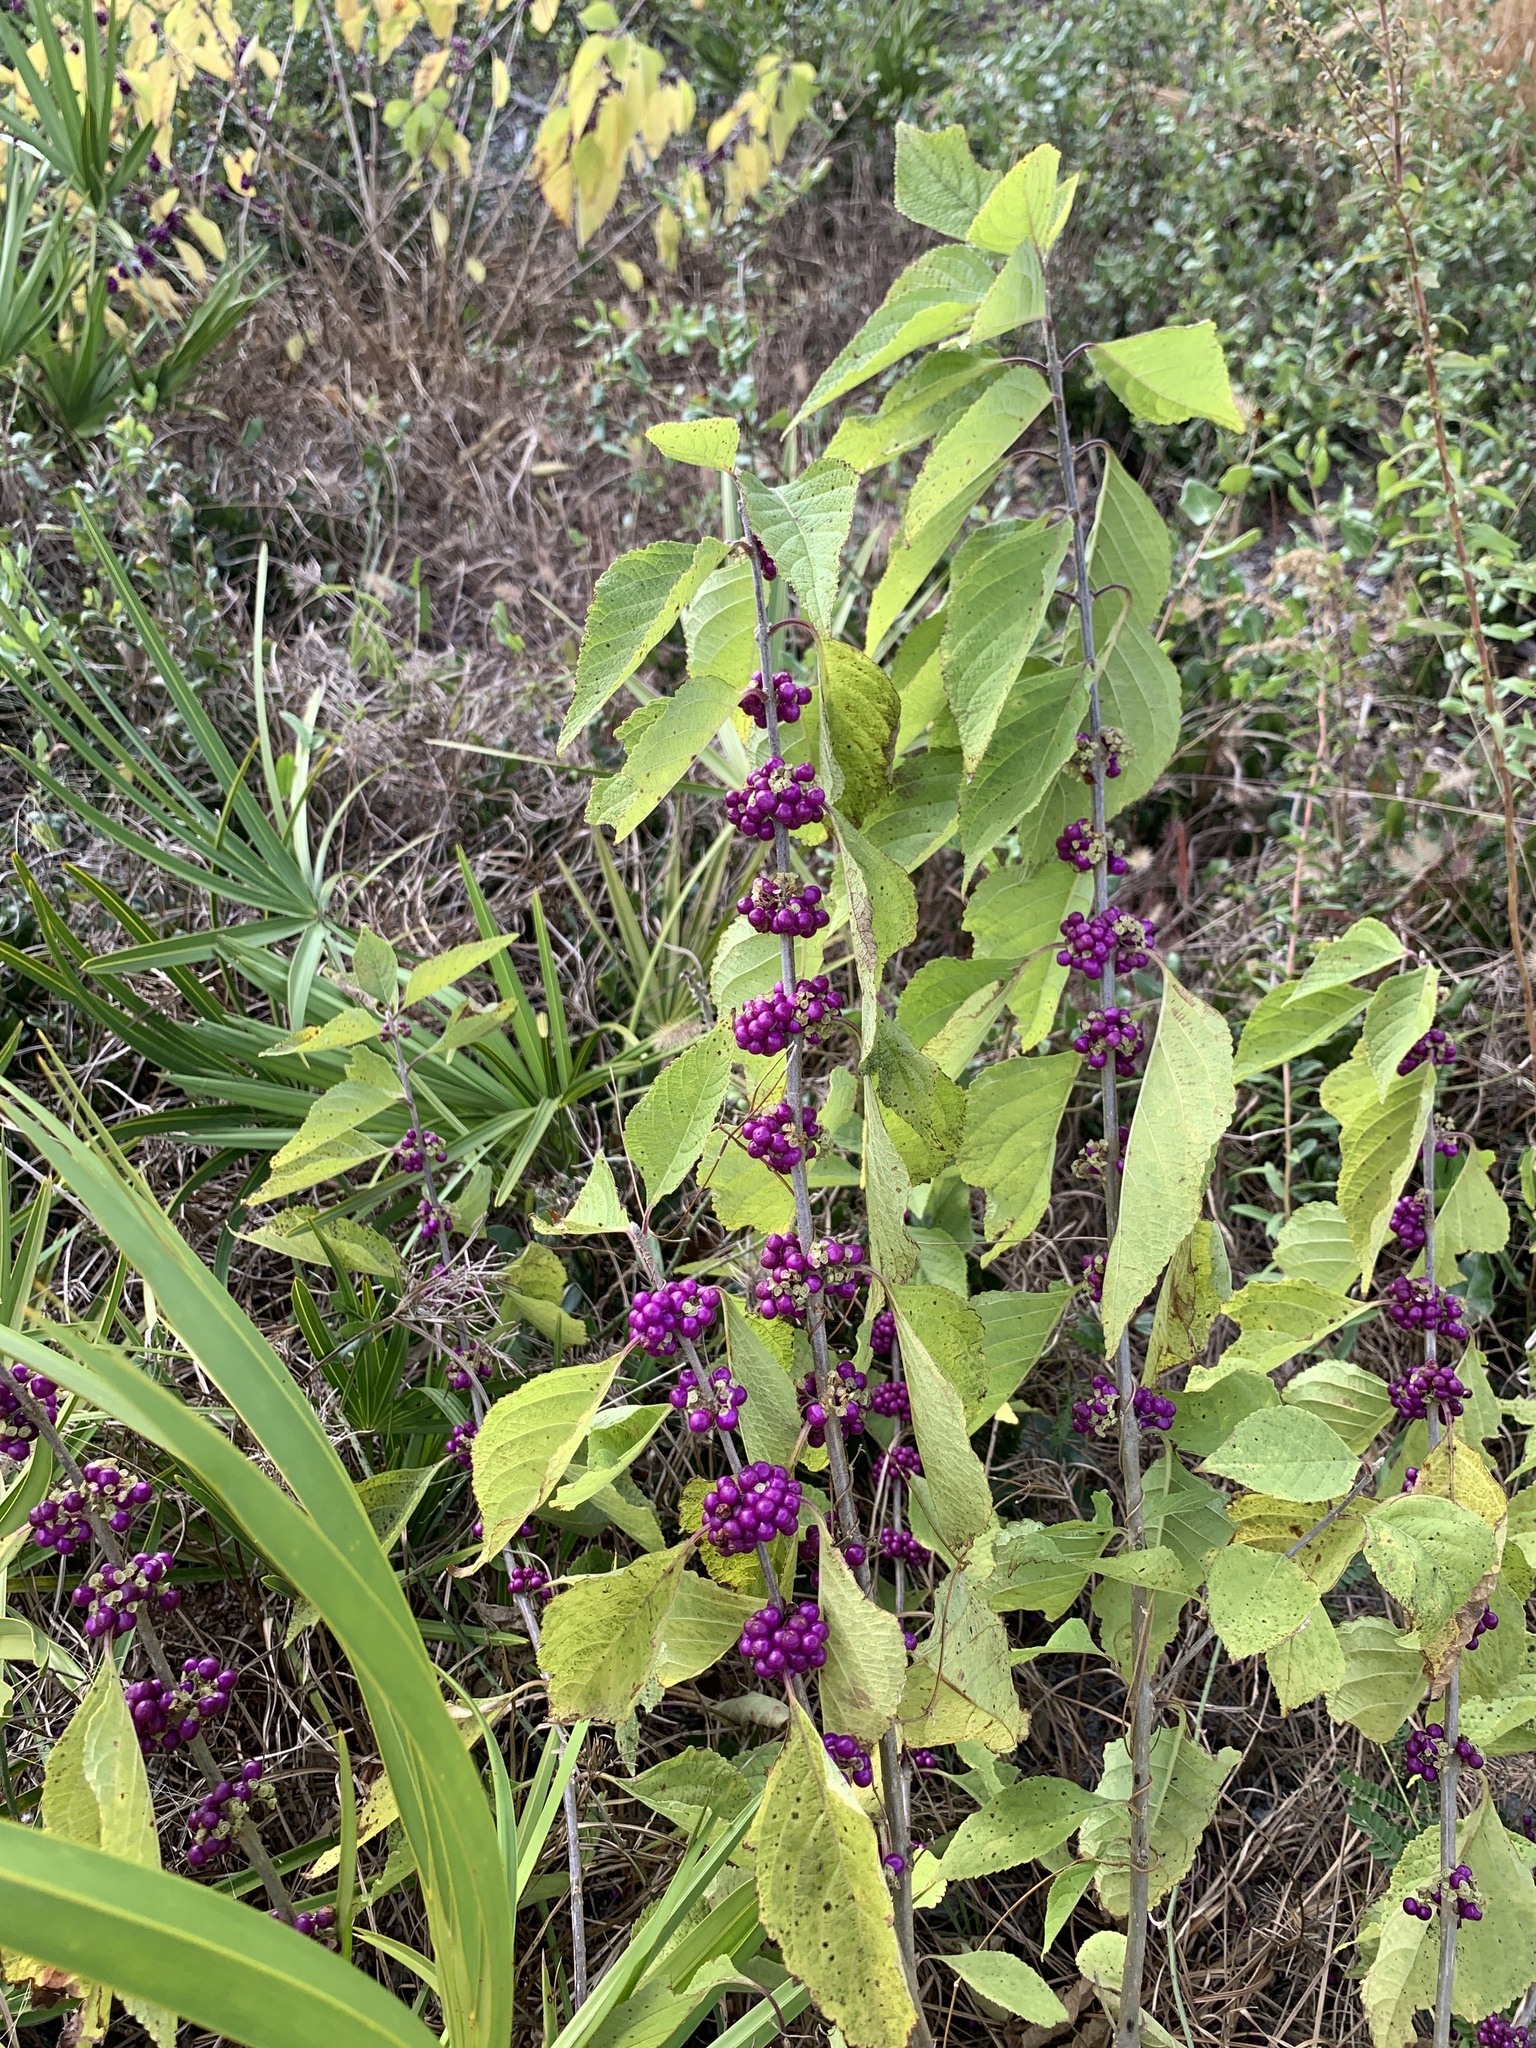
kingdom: Plantae
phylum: Tracheophyta
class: Magnoliopsida
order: Lamiales
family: Lamiaceae
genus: Callicarpa
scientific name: Callicarpa americana
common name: American beautyberry
